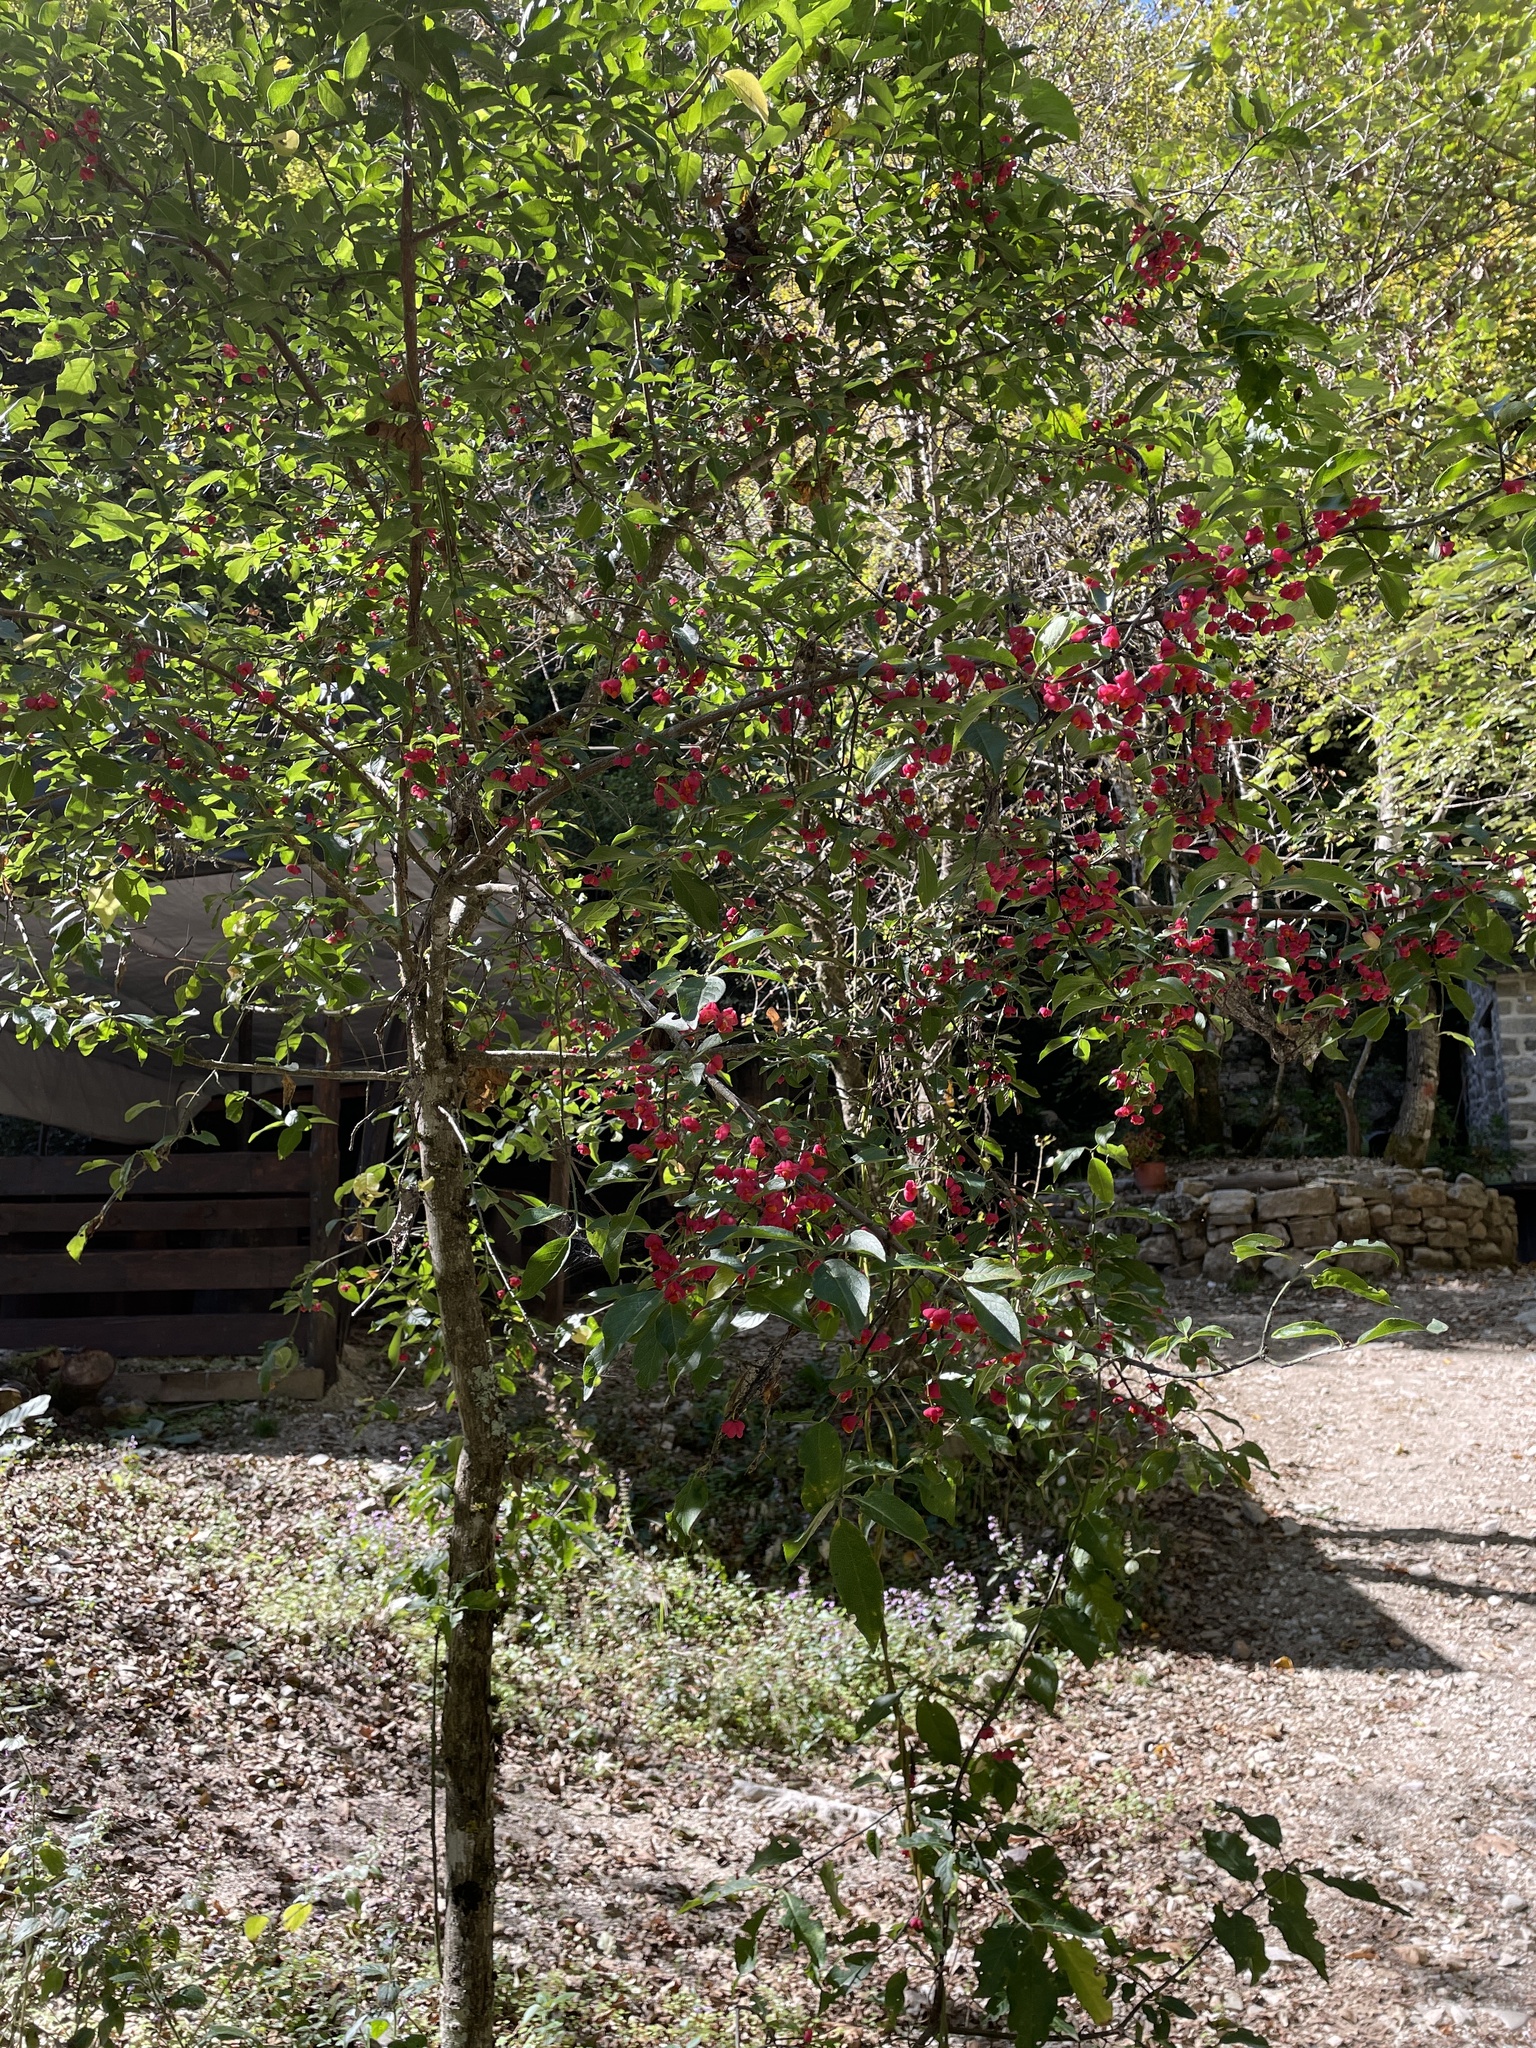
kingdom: Plantae
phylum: Tracheophyta
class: Magnoliopsida
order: Celastrales
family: Celastraceae
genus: Euonymus
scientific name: Euonymus europaeus
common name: Spindle
